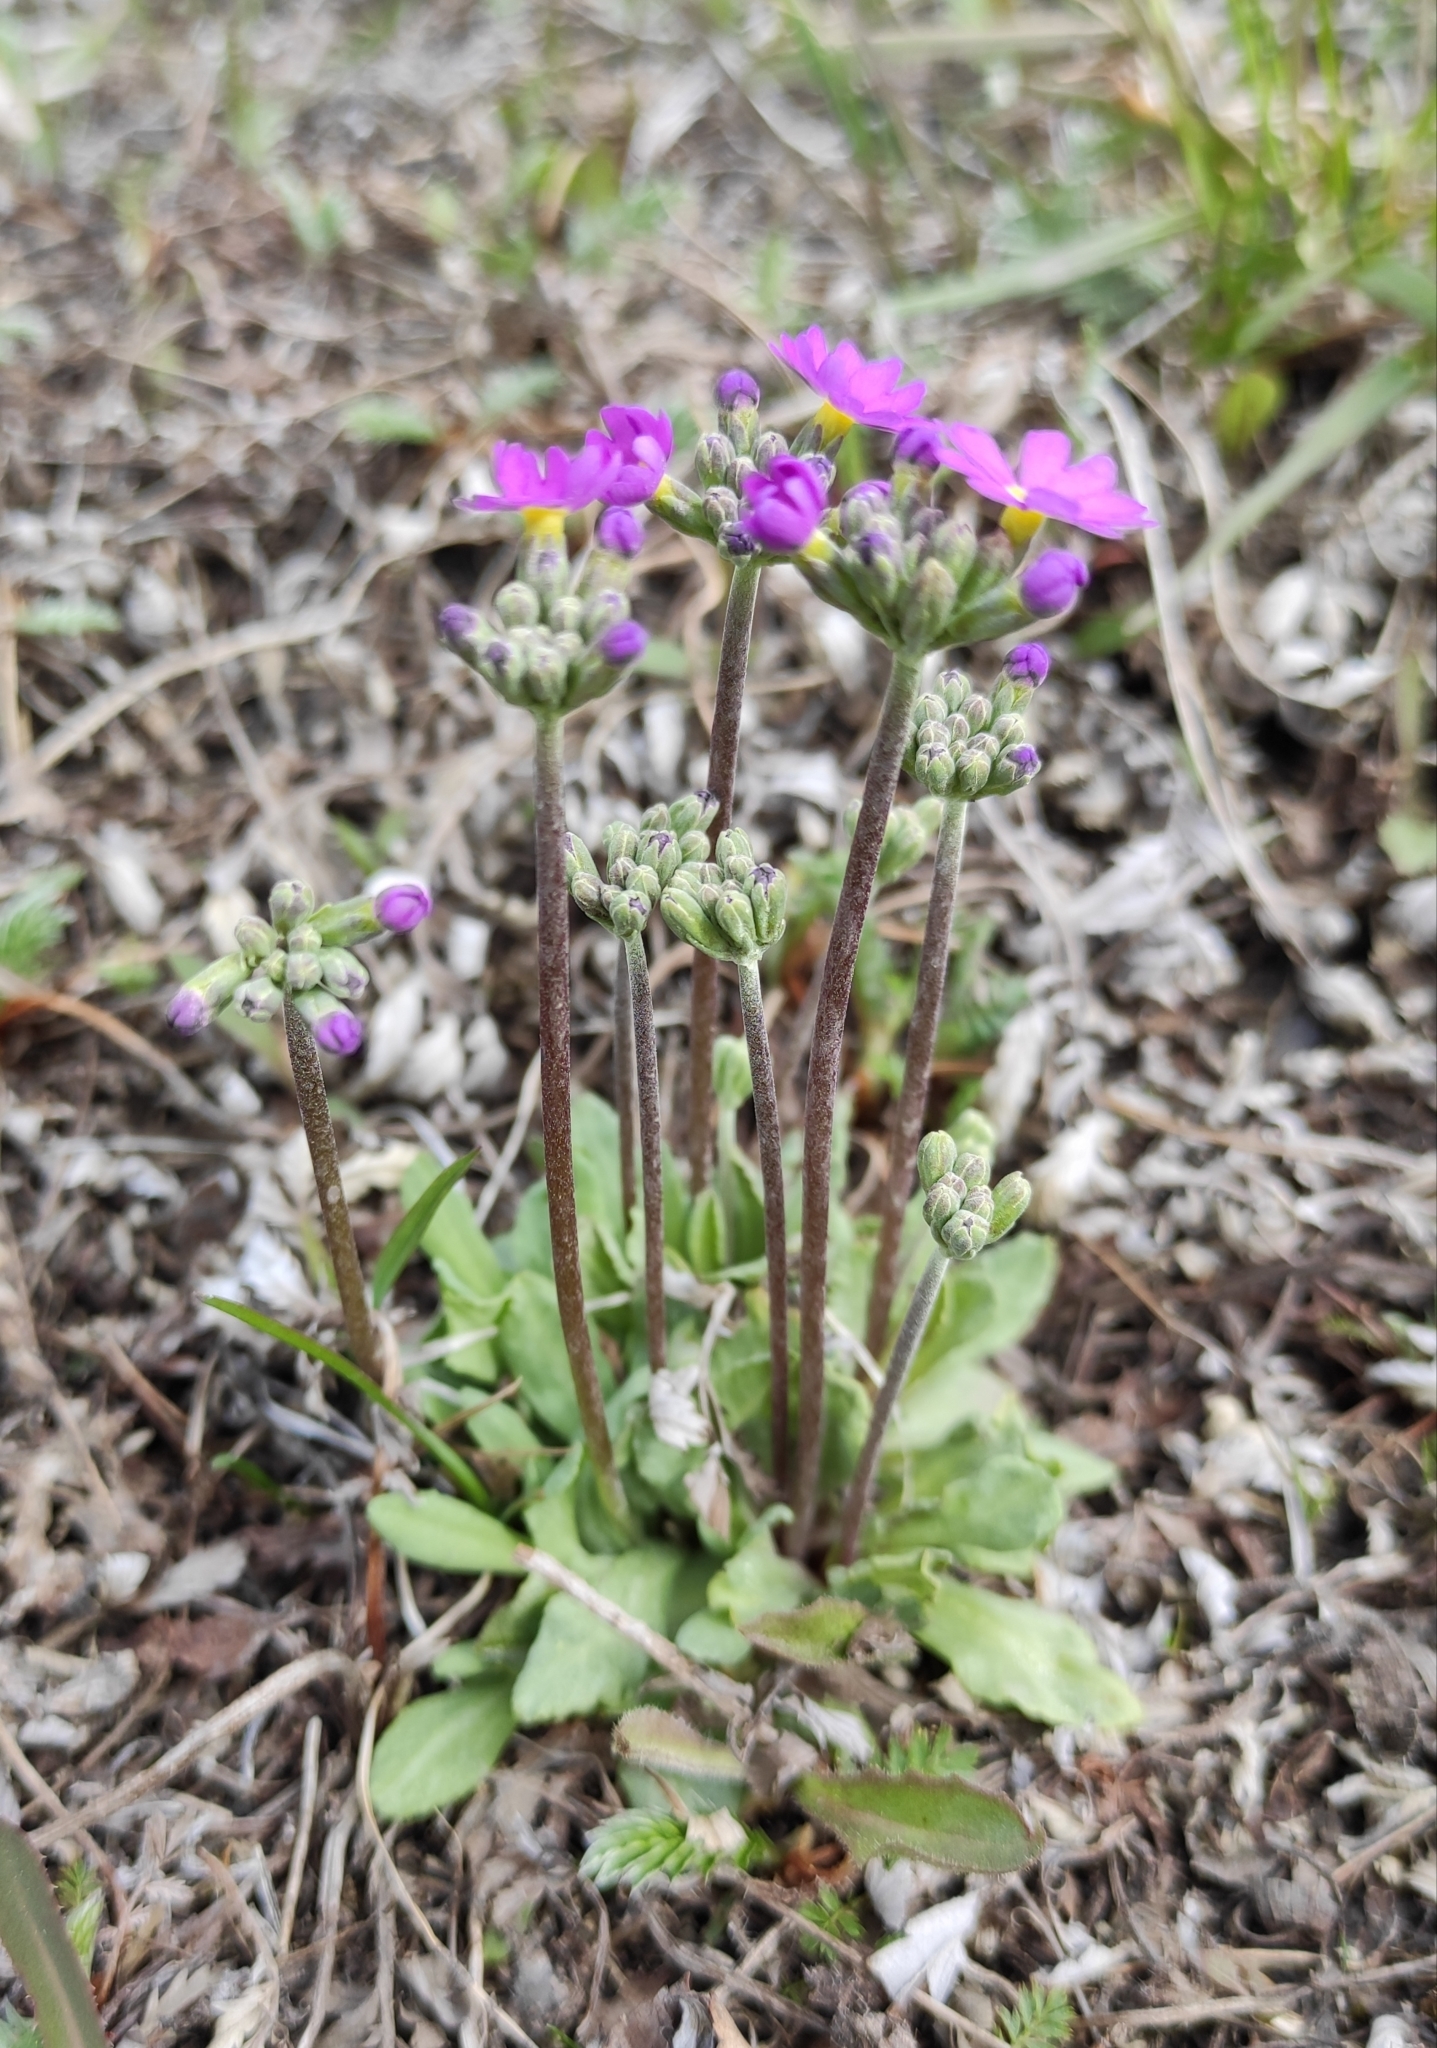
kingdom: Plantae
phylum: Tracheophyta
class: Magnoliopsida
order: Ericales
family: Primulaceae
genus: Primula
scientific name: Primula farinosa
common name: Bird's-eye primrose
